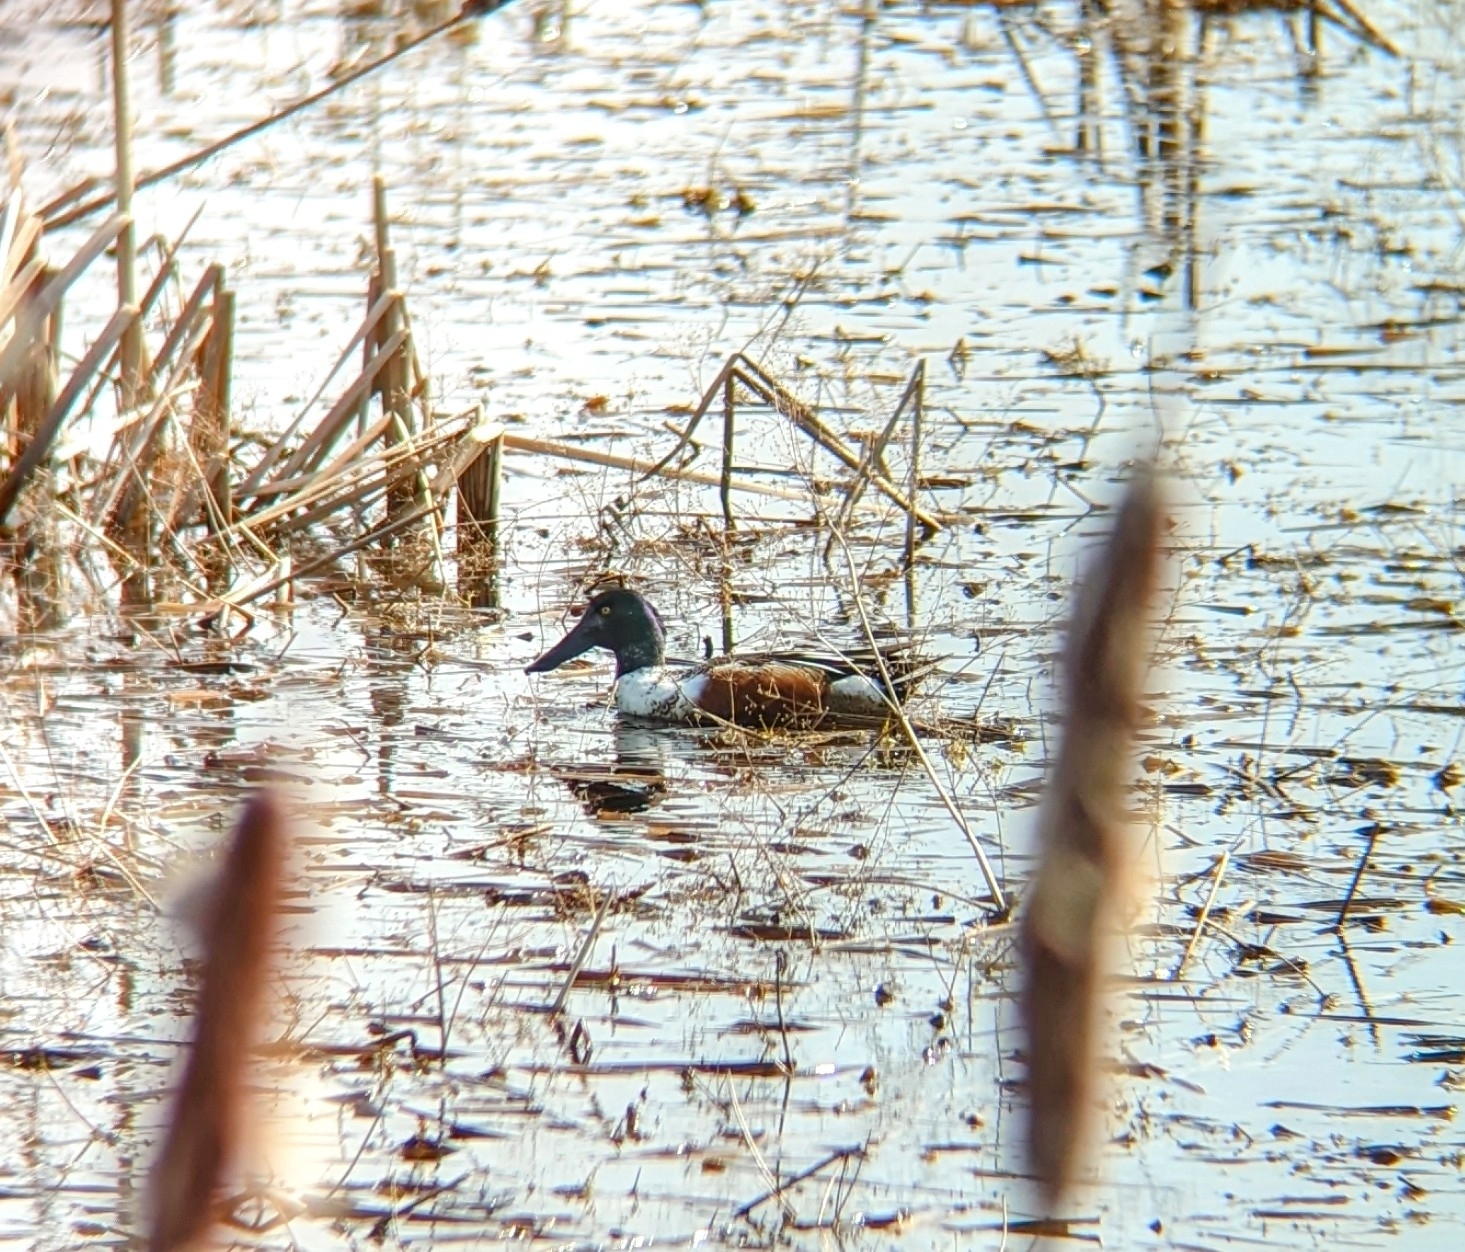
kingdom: Animalia
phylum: Chordata
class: Aves
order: Anseriformes
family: Anatidae
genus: Spatula
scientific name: Spatula clypeata
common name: Northern shoveler
